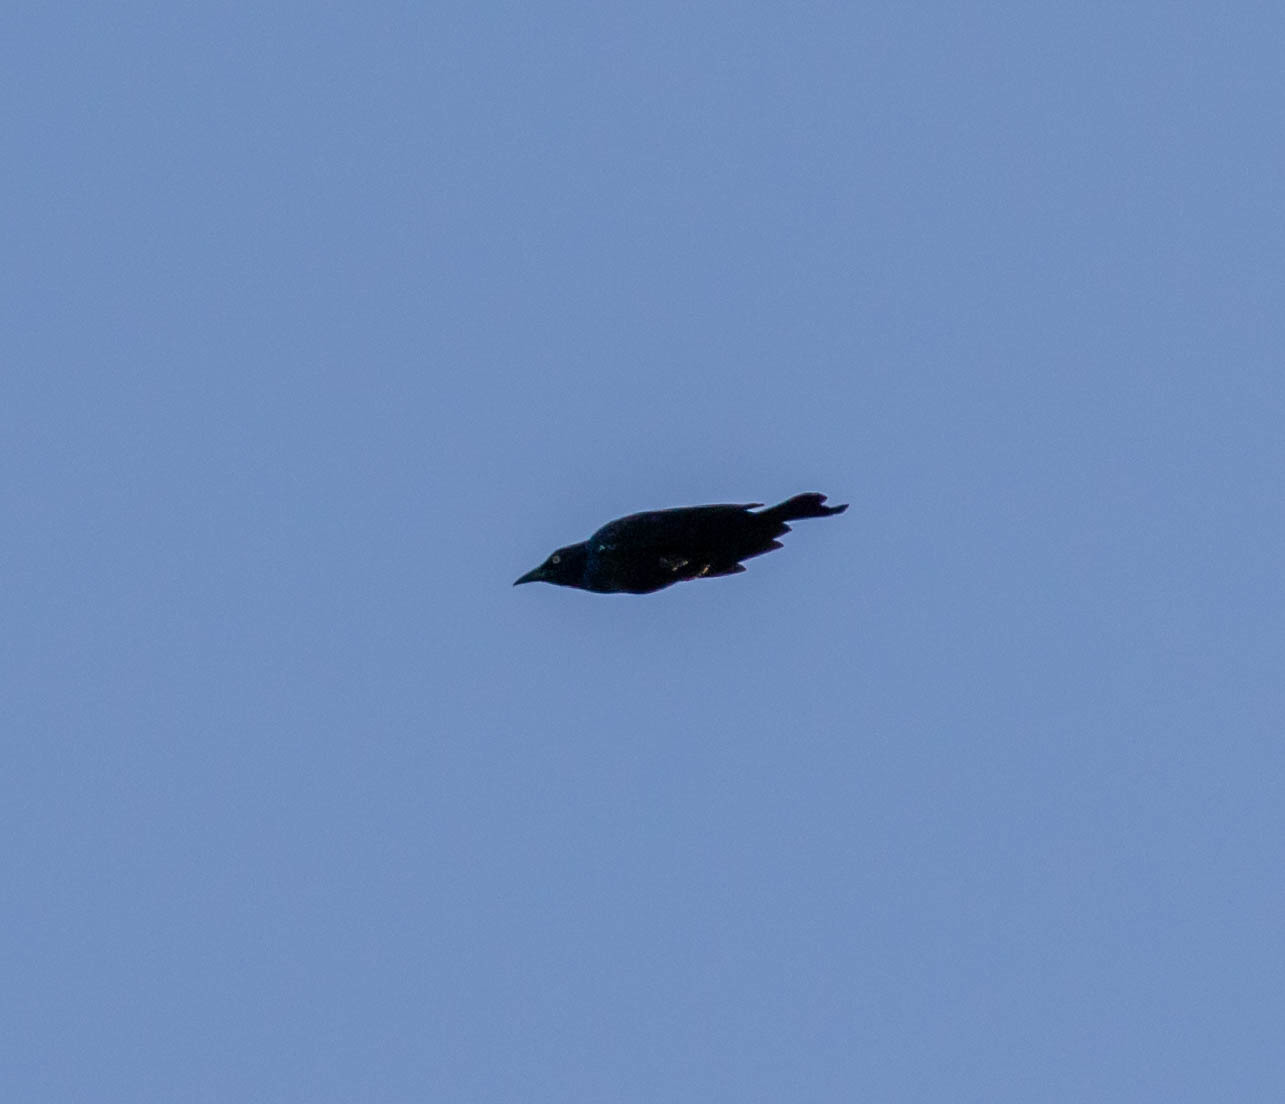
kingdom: Animalia
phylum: Chordata
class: Aves
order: Passeriformes
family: Icteridae
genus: Quiscalus
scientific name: Quiscalus quiscula
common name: Common grackle
